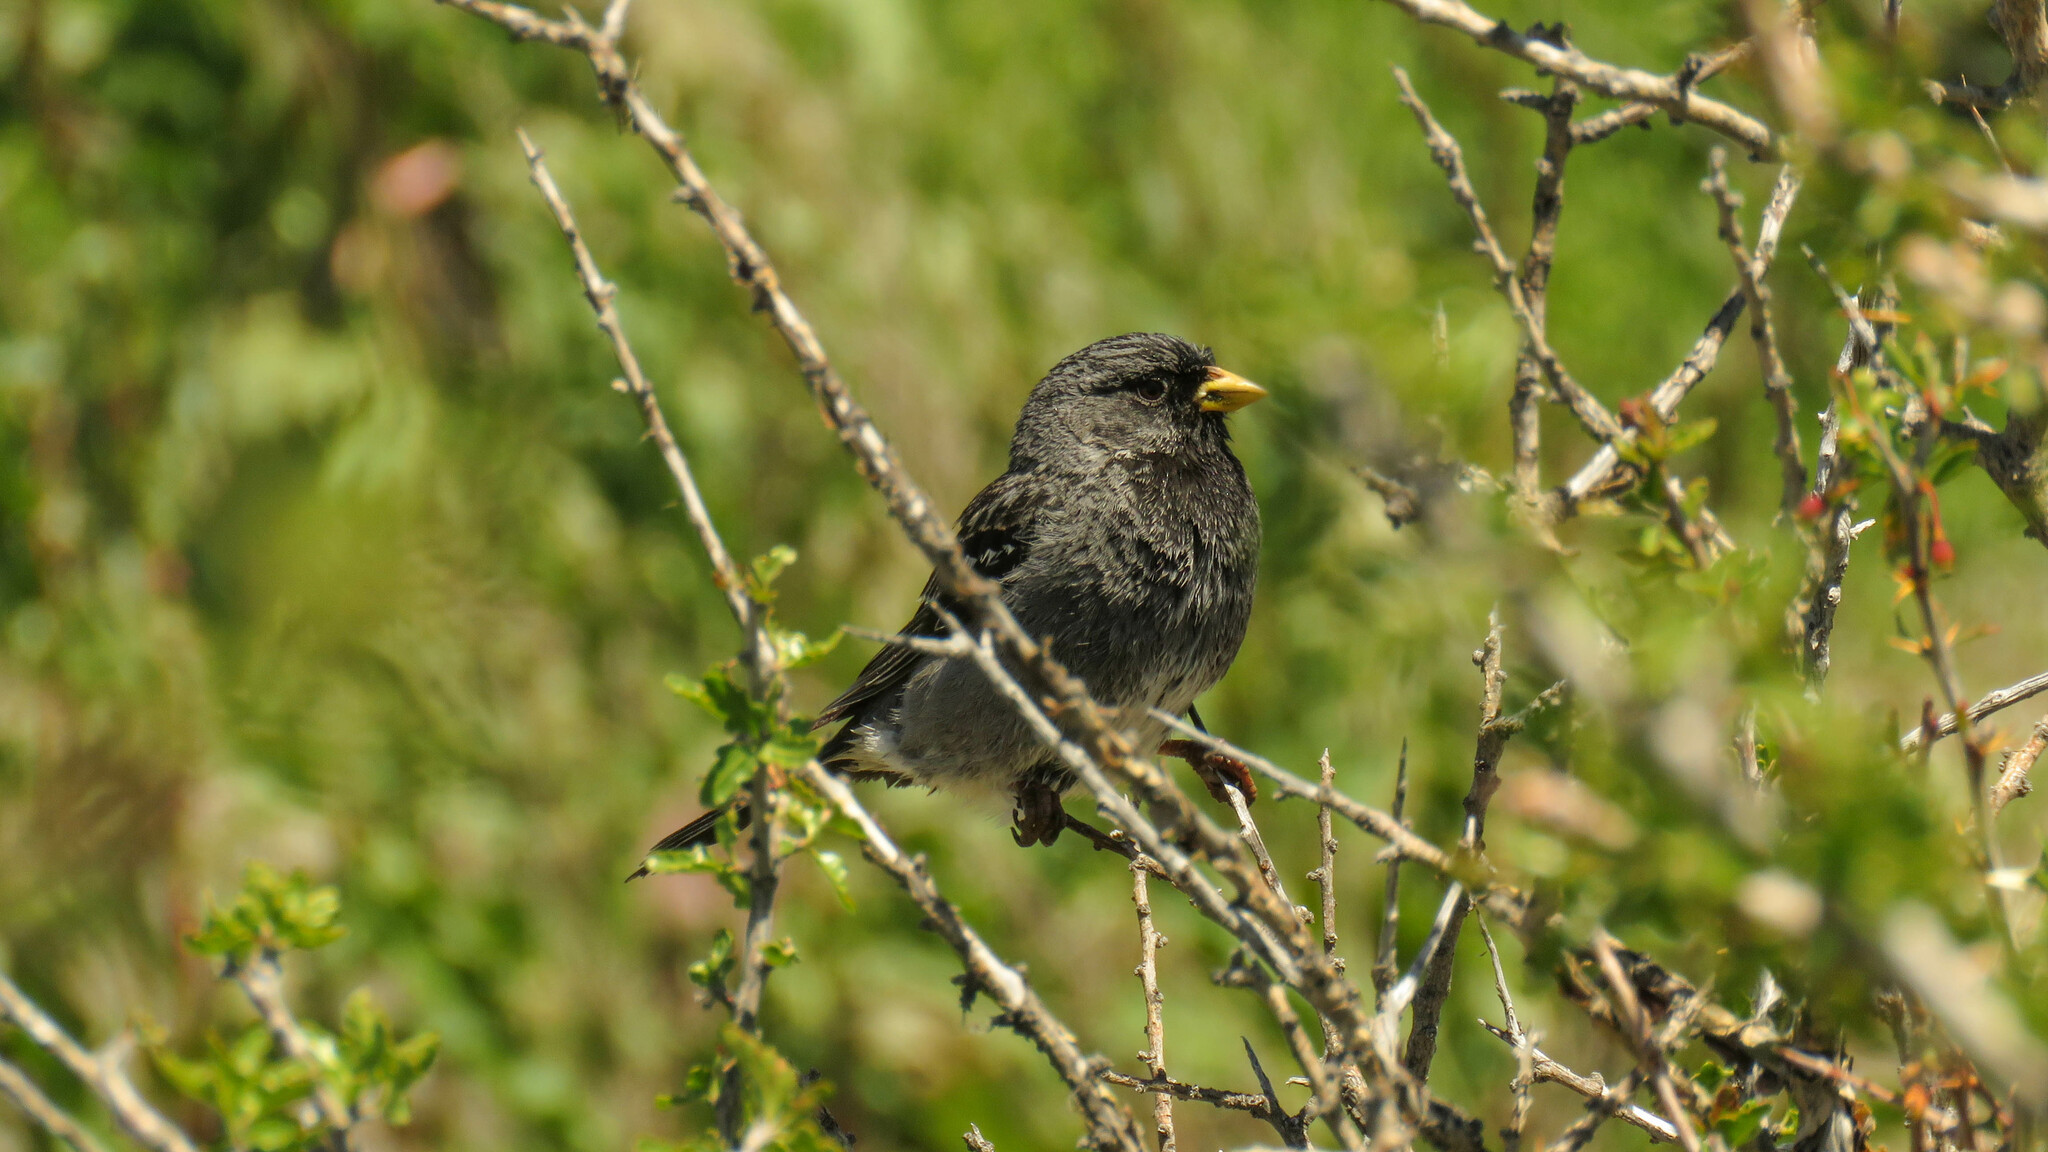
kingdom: Animalia
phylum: Chordata
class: Aves
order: Passeriformes
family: Thraupidae
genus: Rhopospina
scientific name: Rhopospina fruticeti
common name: Mourning sierra finch
